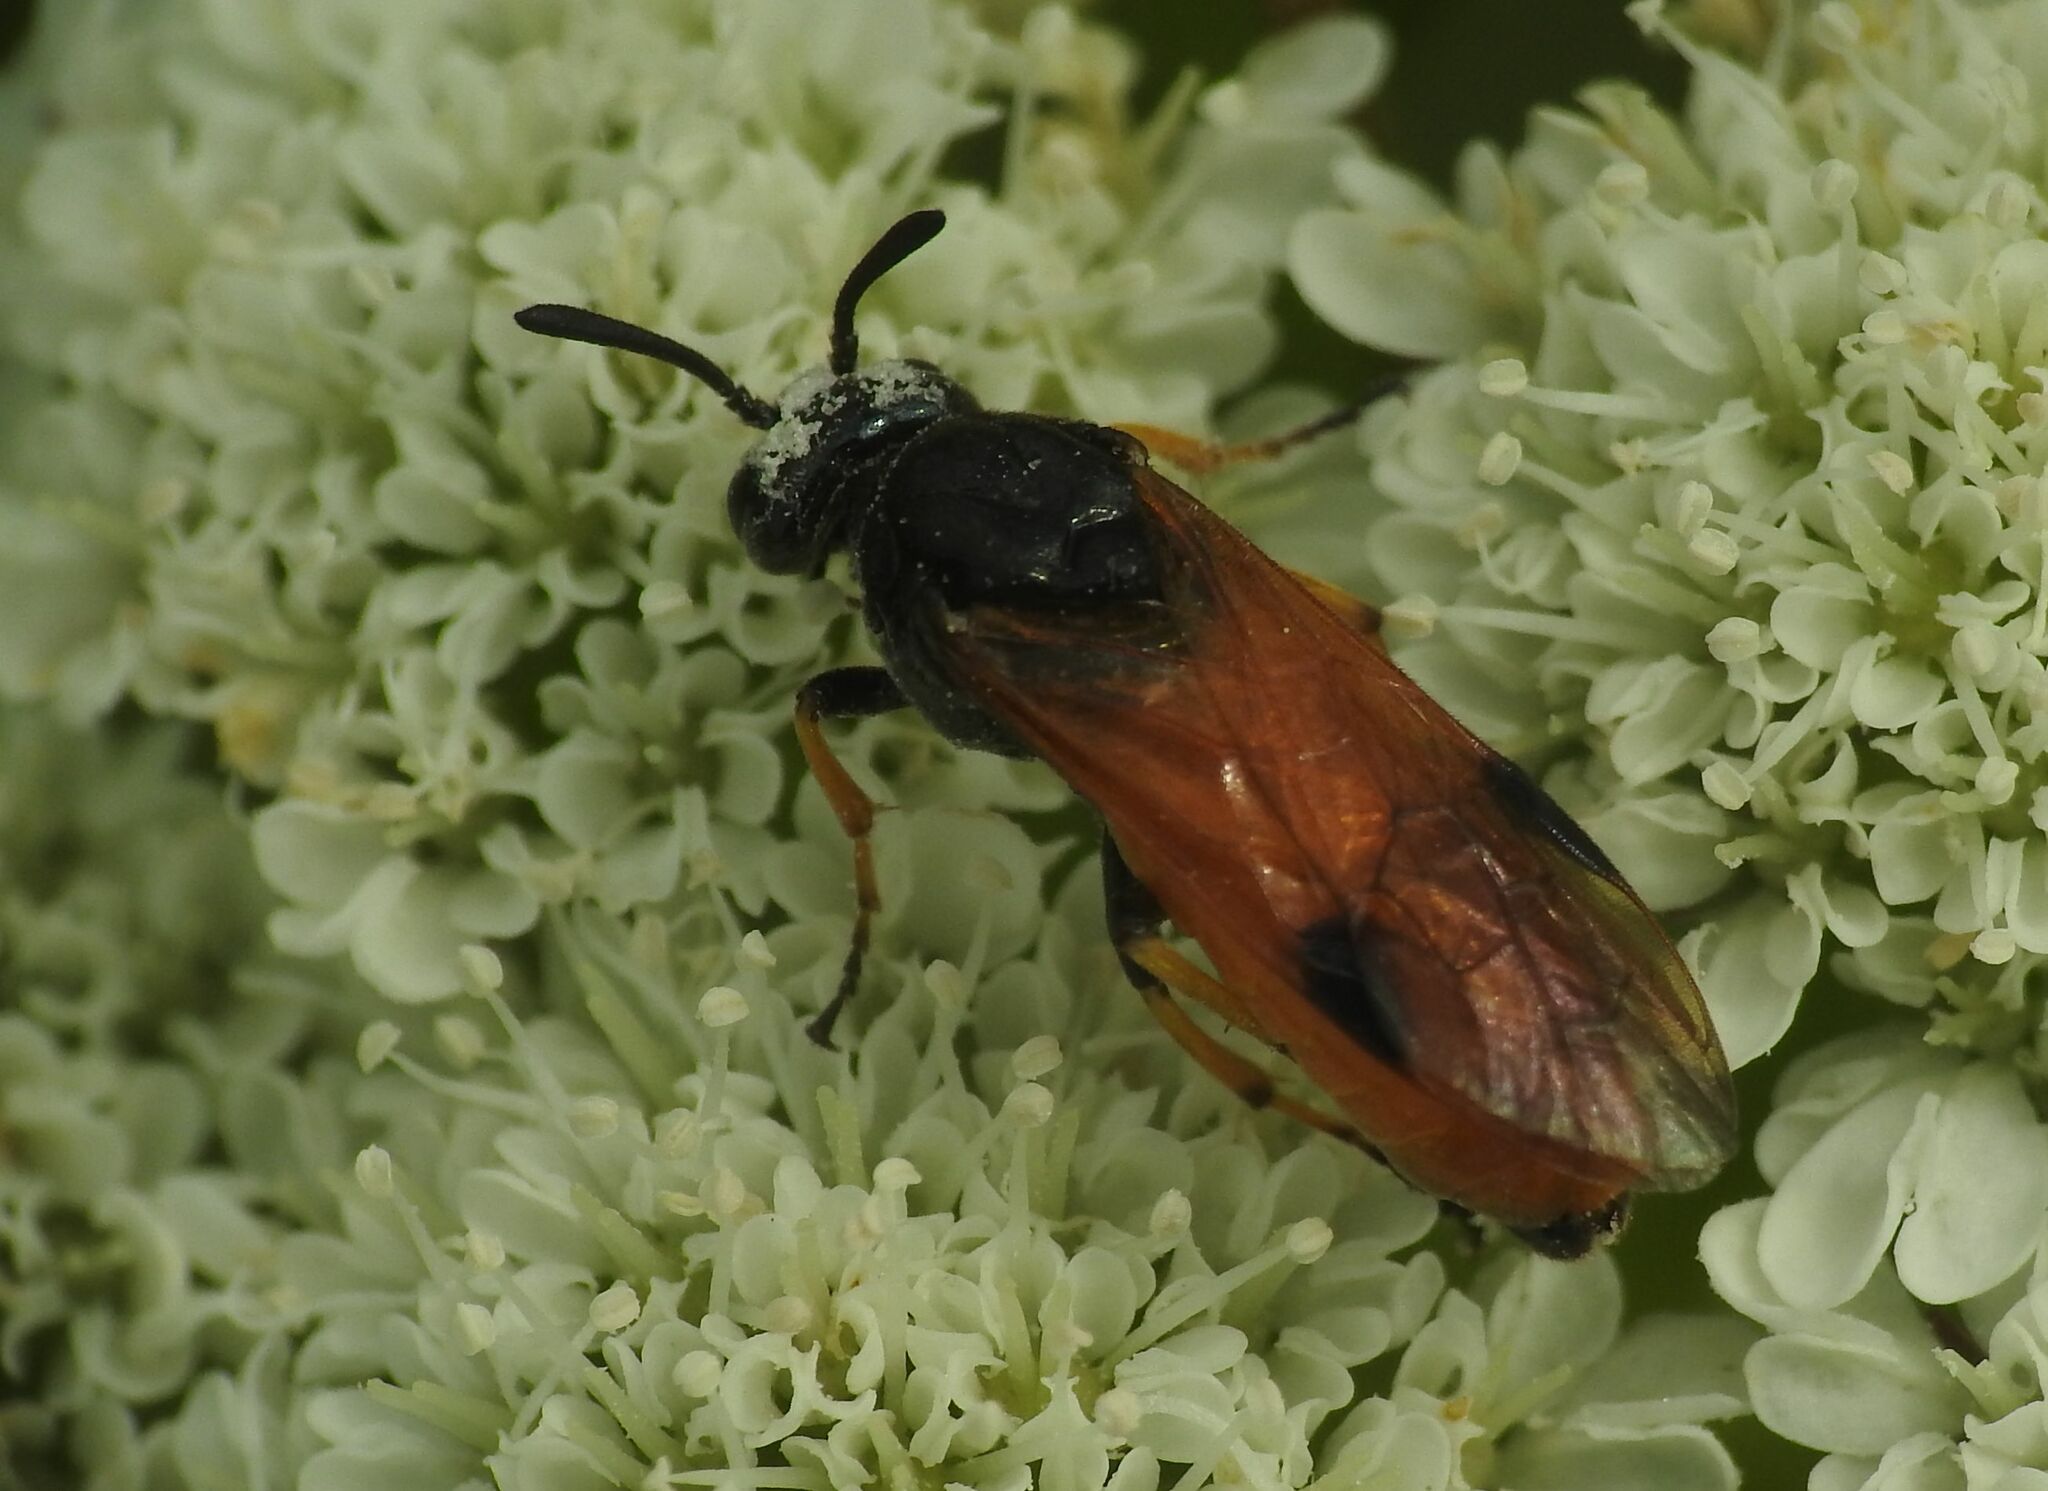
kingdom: Animalia
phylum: Arthropoda
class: Insecta
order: Hymenoptera
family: Argidae
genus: Arge
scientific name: Arge melanochra
